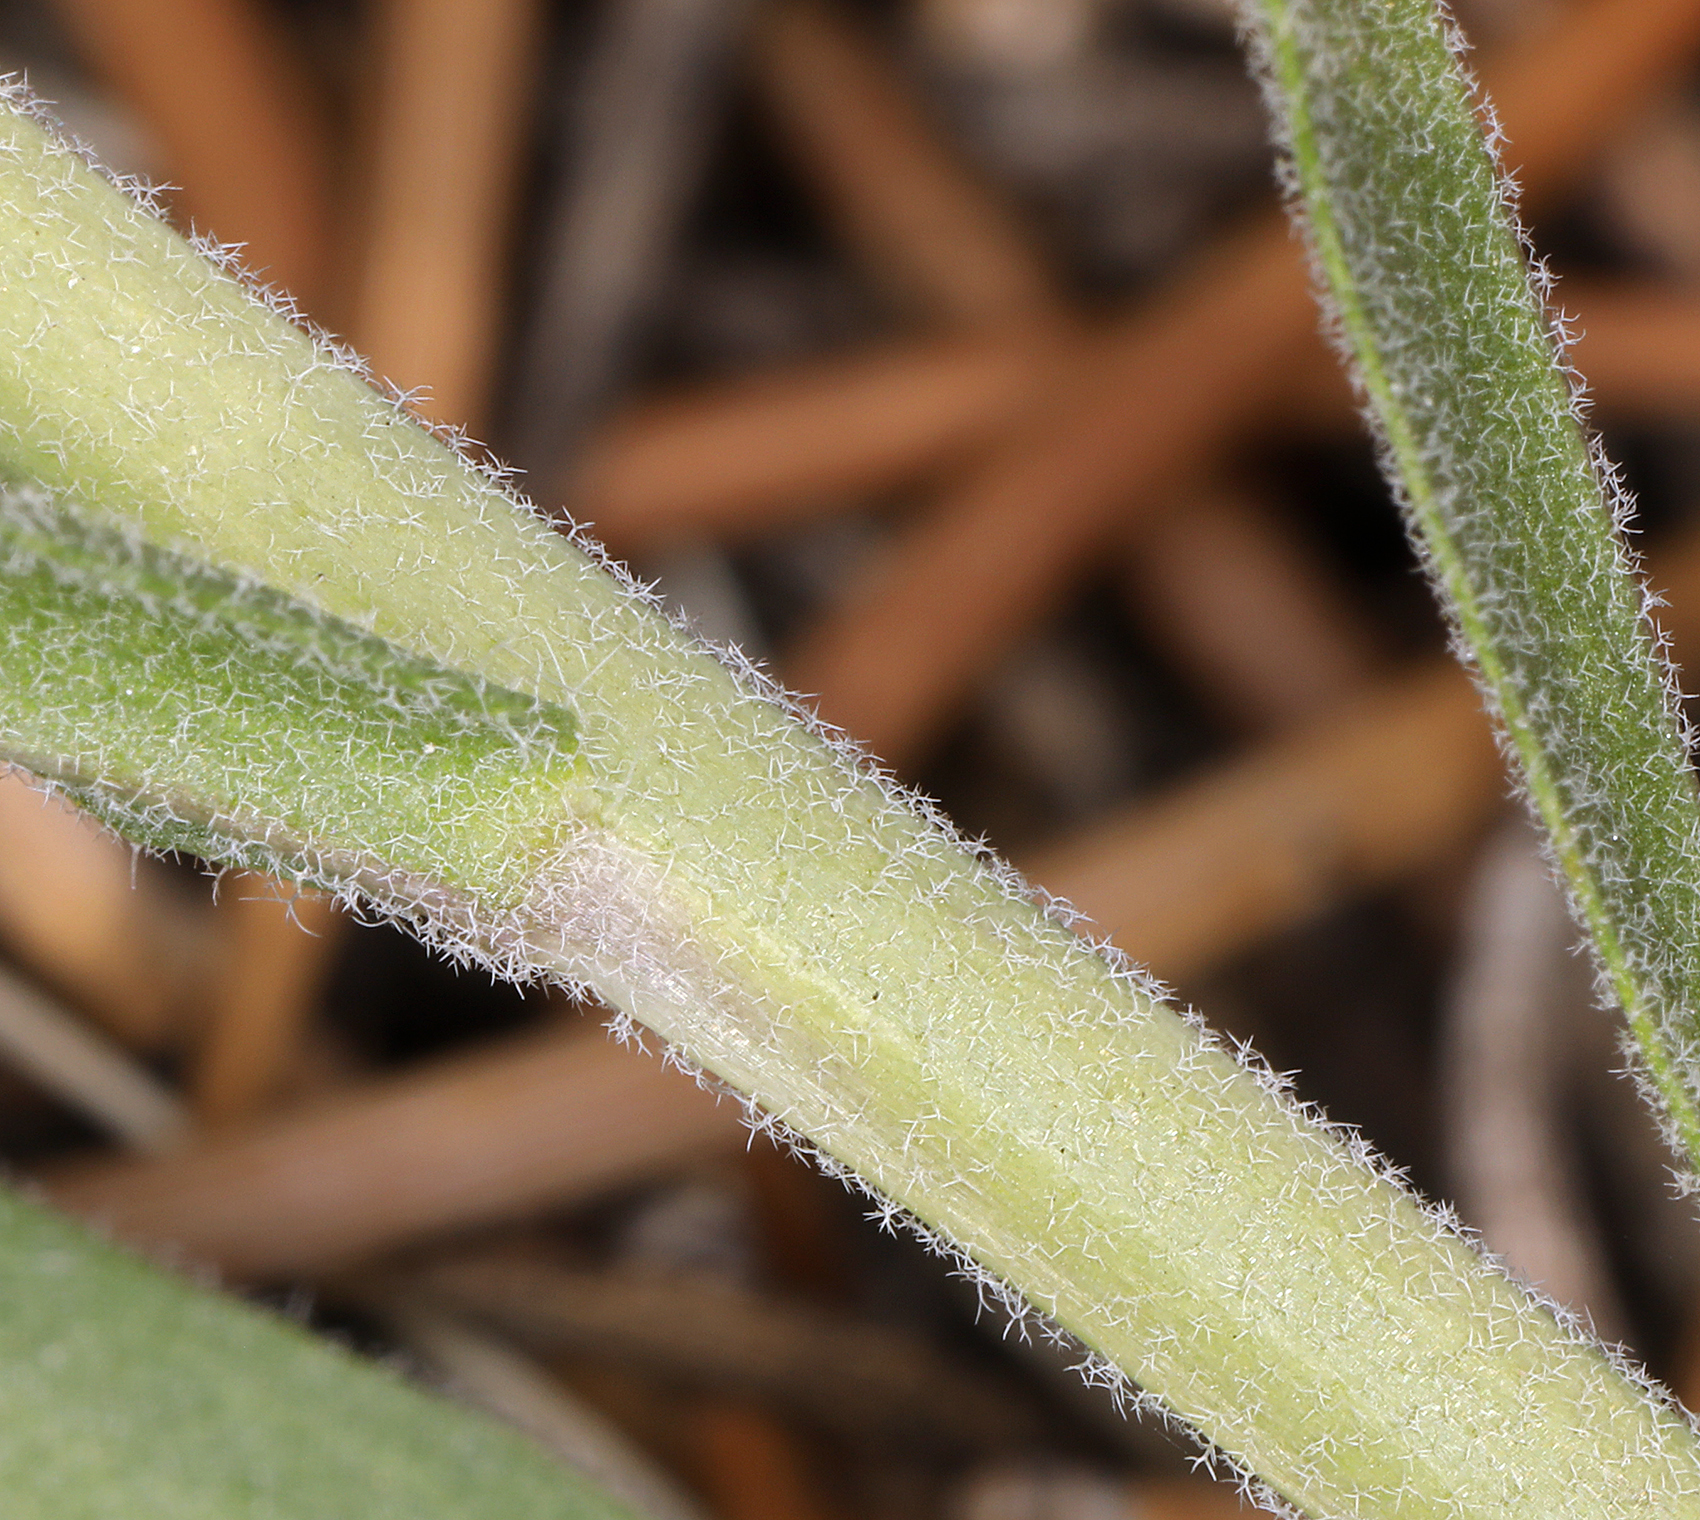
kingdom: Plantae
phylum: Tracheophyta
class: Magnoliopsida
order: Brassicales
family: Brassicaceae
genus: Boechera
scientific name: Boechera retrofracta
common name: Dangling suncress
